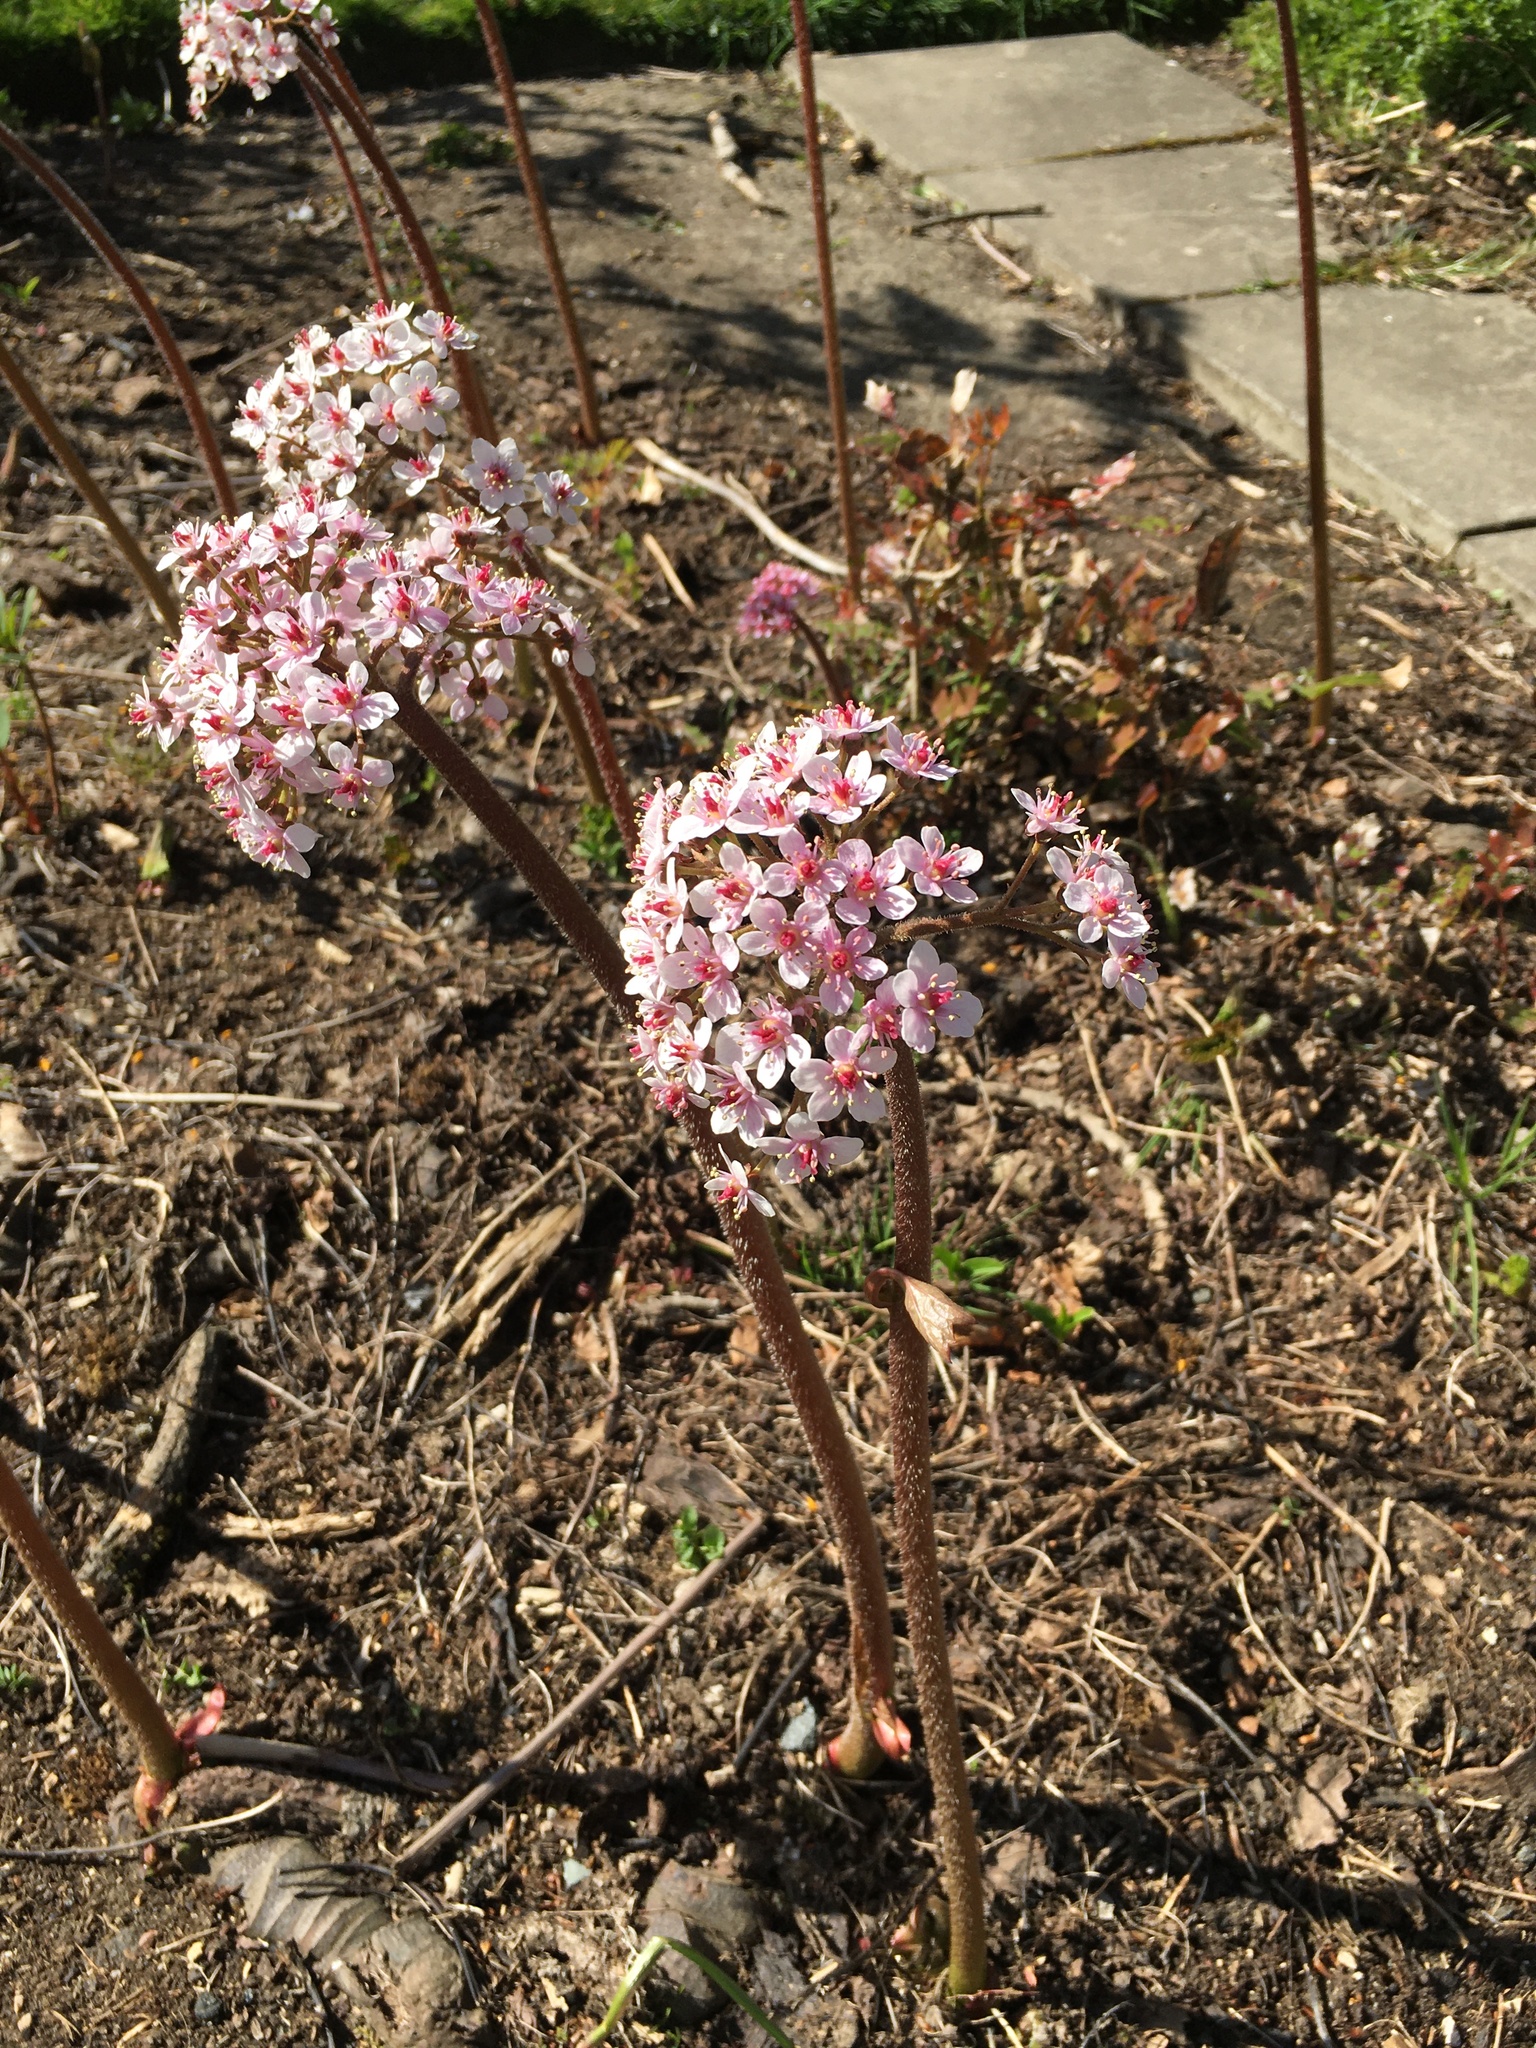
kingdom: Plantae
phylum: Tracheophyta
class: Magnoliopsida
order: Saxifragales
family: Saxifragaceae
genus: Darmera
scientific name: Darmera peltata
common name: Indian-rhubarb
